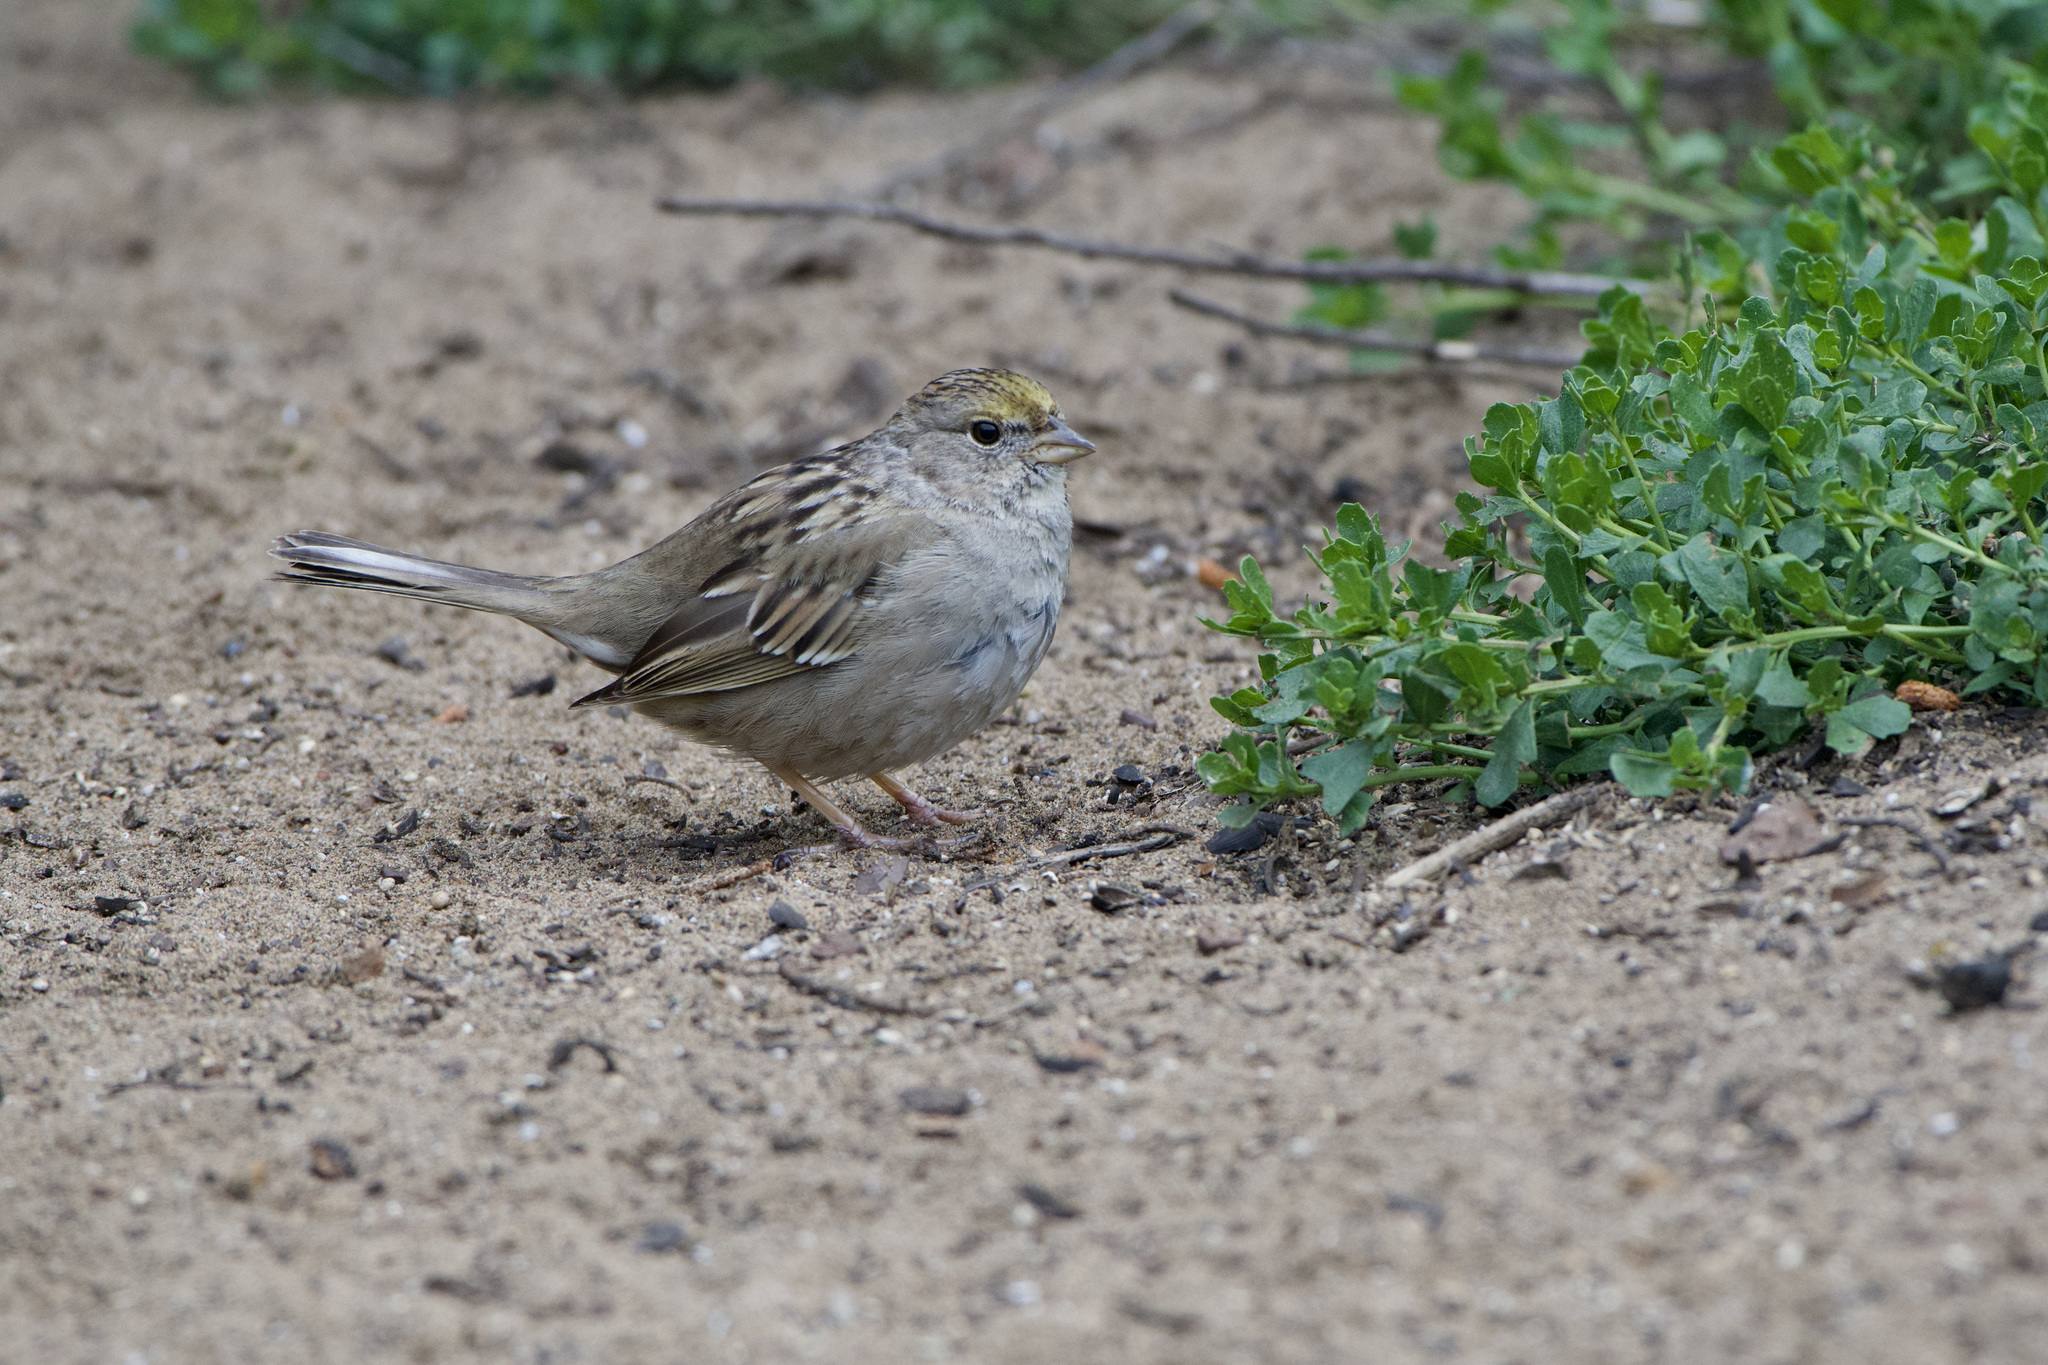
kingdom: Animalia
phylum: Chordata
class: Aves
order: Passeriformes
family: Passerellidae
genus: Zonotrichia
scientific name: Zonotrichia atricapilla
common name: Golden-crowned sparrow
